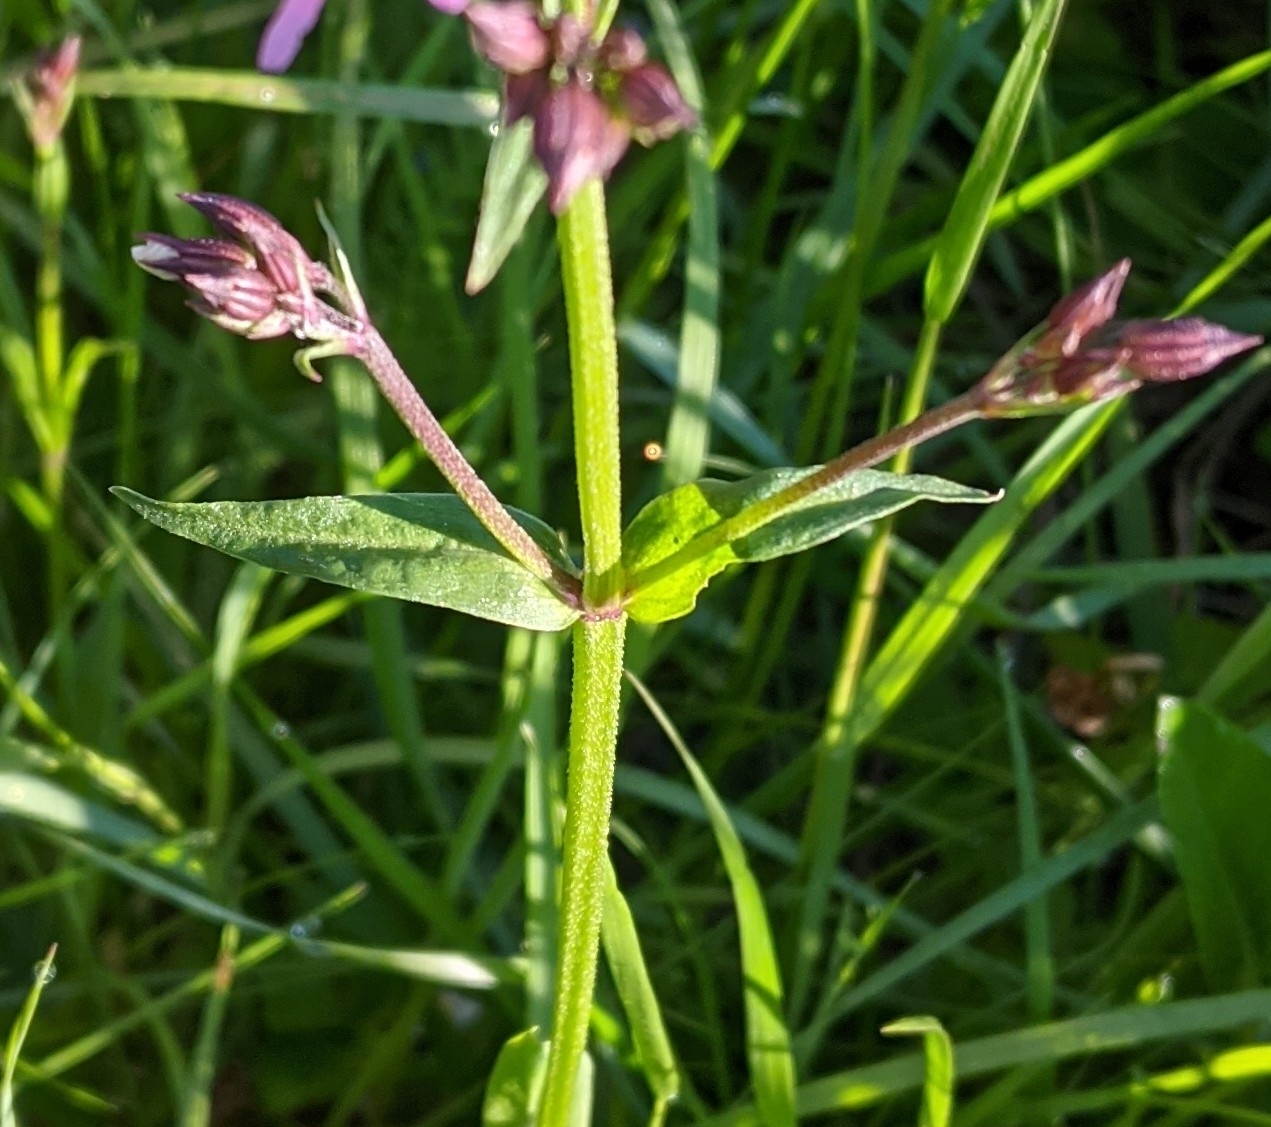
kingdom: Plantae
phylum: Tracheophyta
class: Magnoliopsida
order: Caryophyllales
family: Caryophyllaceae
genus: Silene
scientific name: Silene flos-cuculi
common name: Ragged-robin
